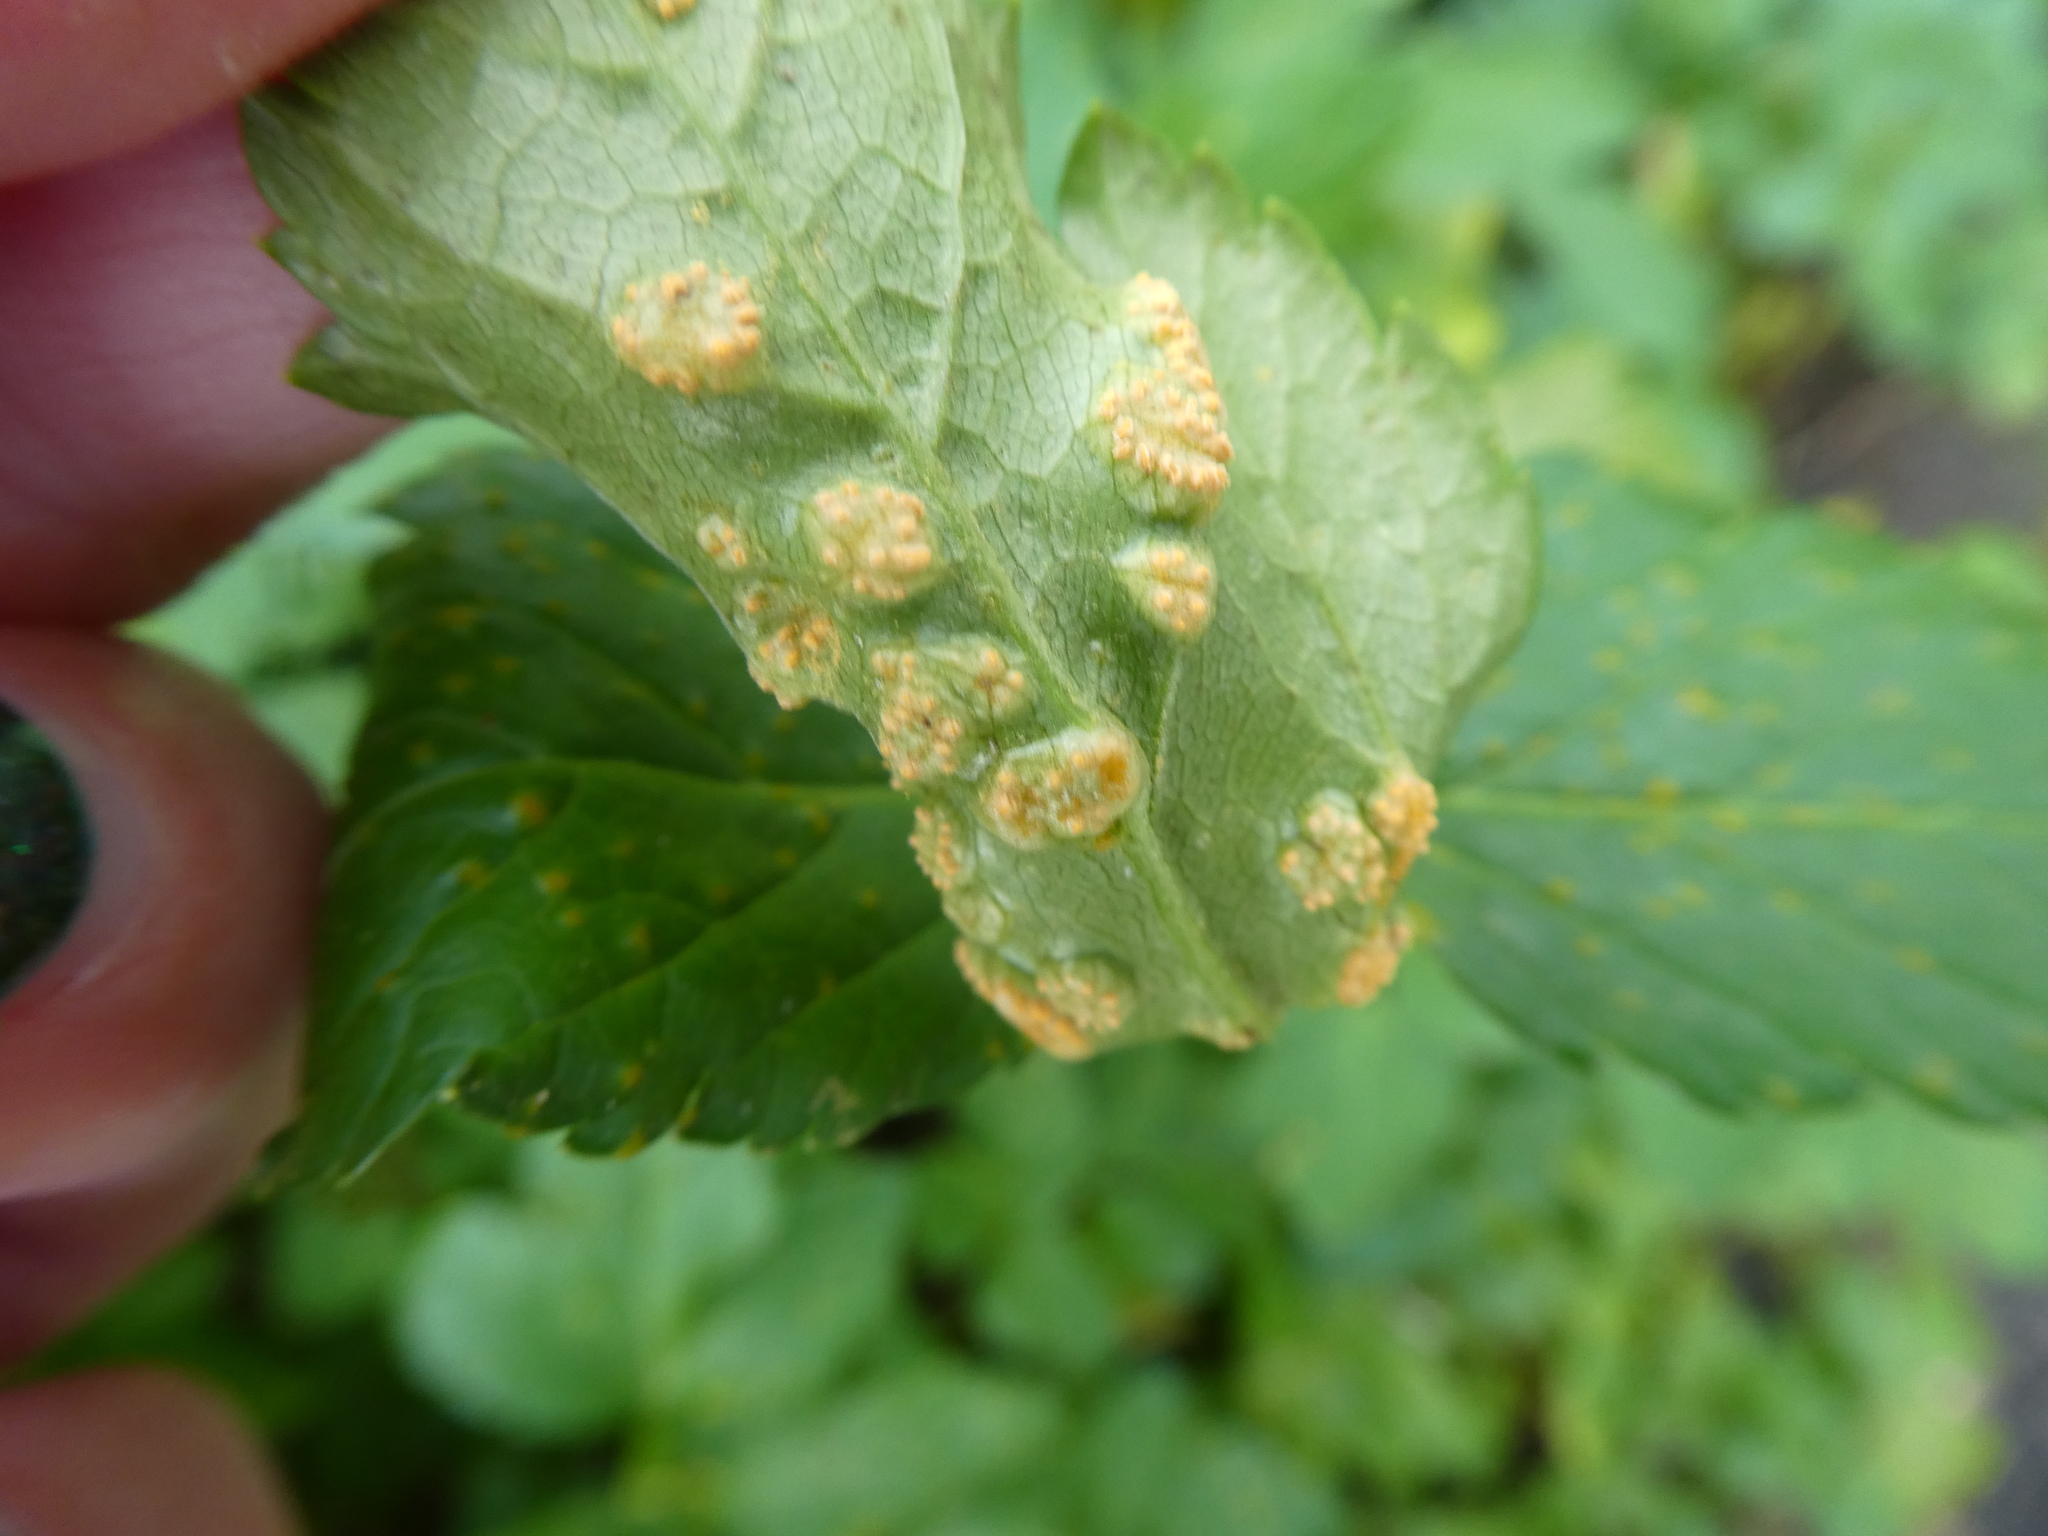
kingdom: Fungi
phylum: Basidiomycota
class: Pucciniomycetes
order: Pucciniales
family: Pucciniaceae
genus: Puccinia
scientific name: Puccinia smyrnii
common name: Alexanders rust
